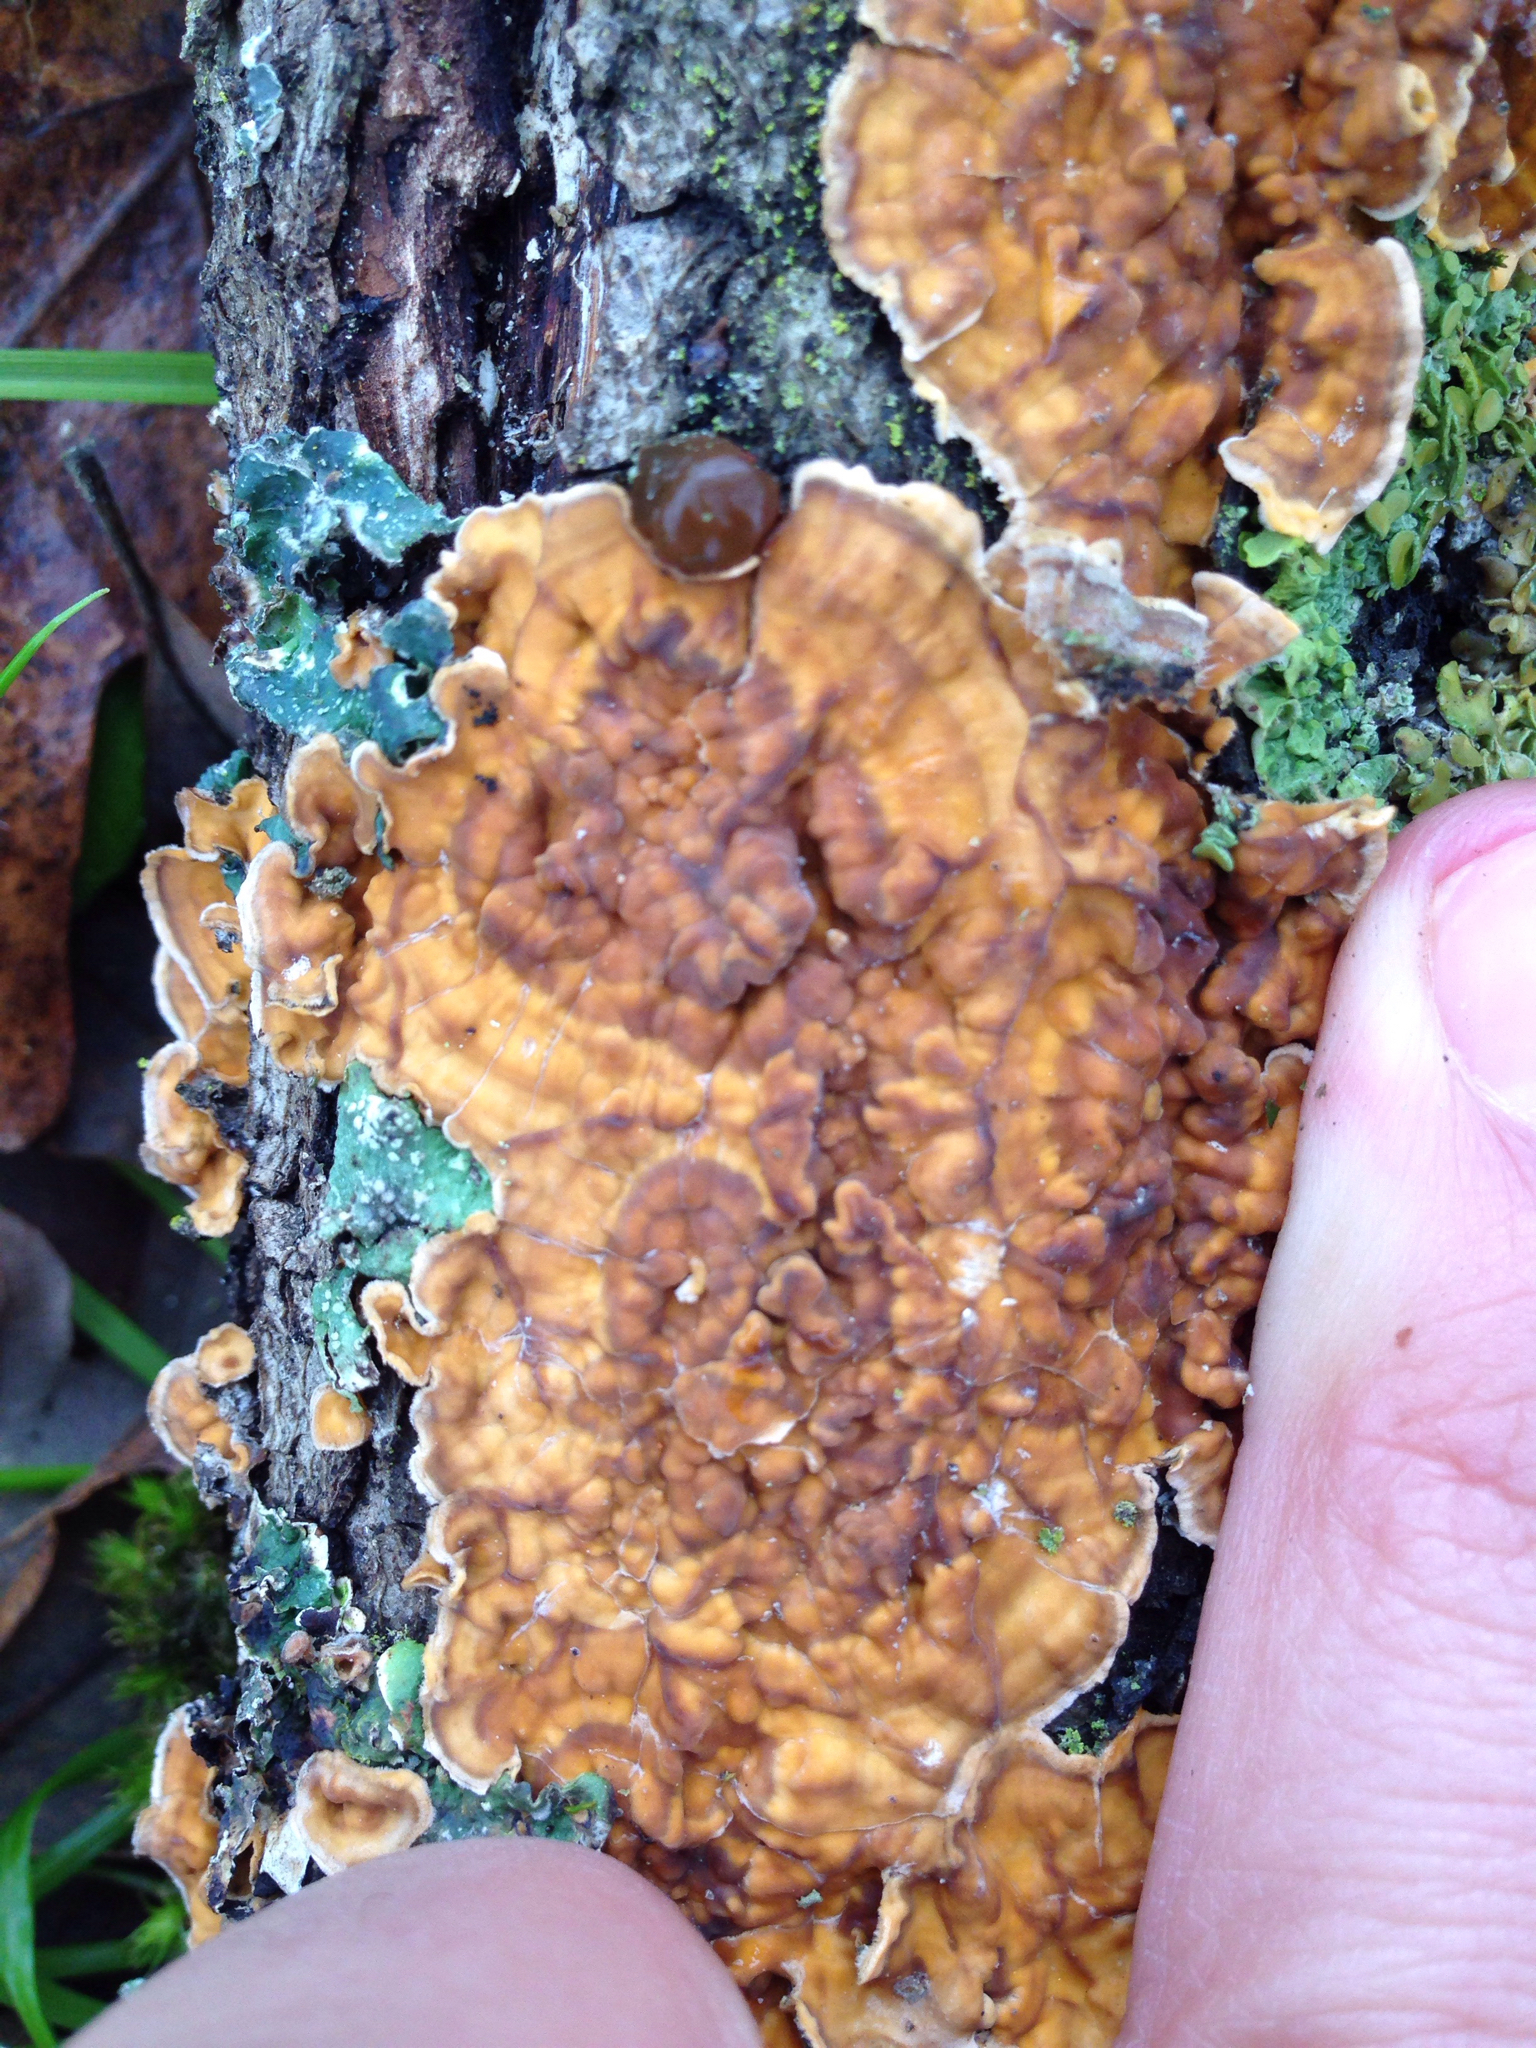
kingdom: Fungi
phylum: Basidiomycota
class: Agaricomycetes
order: Russulales
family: Stereaceae
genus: Stereum
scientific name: Stereum hirsutum
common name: Hairy curtain crust
